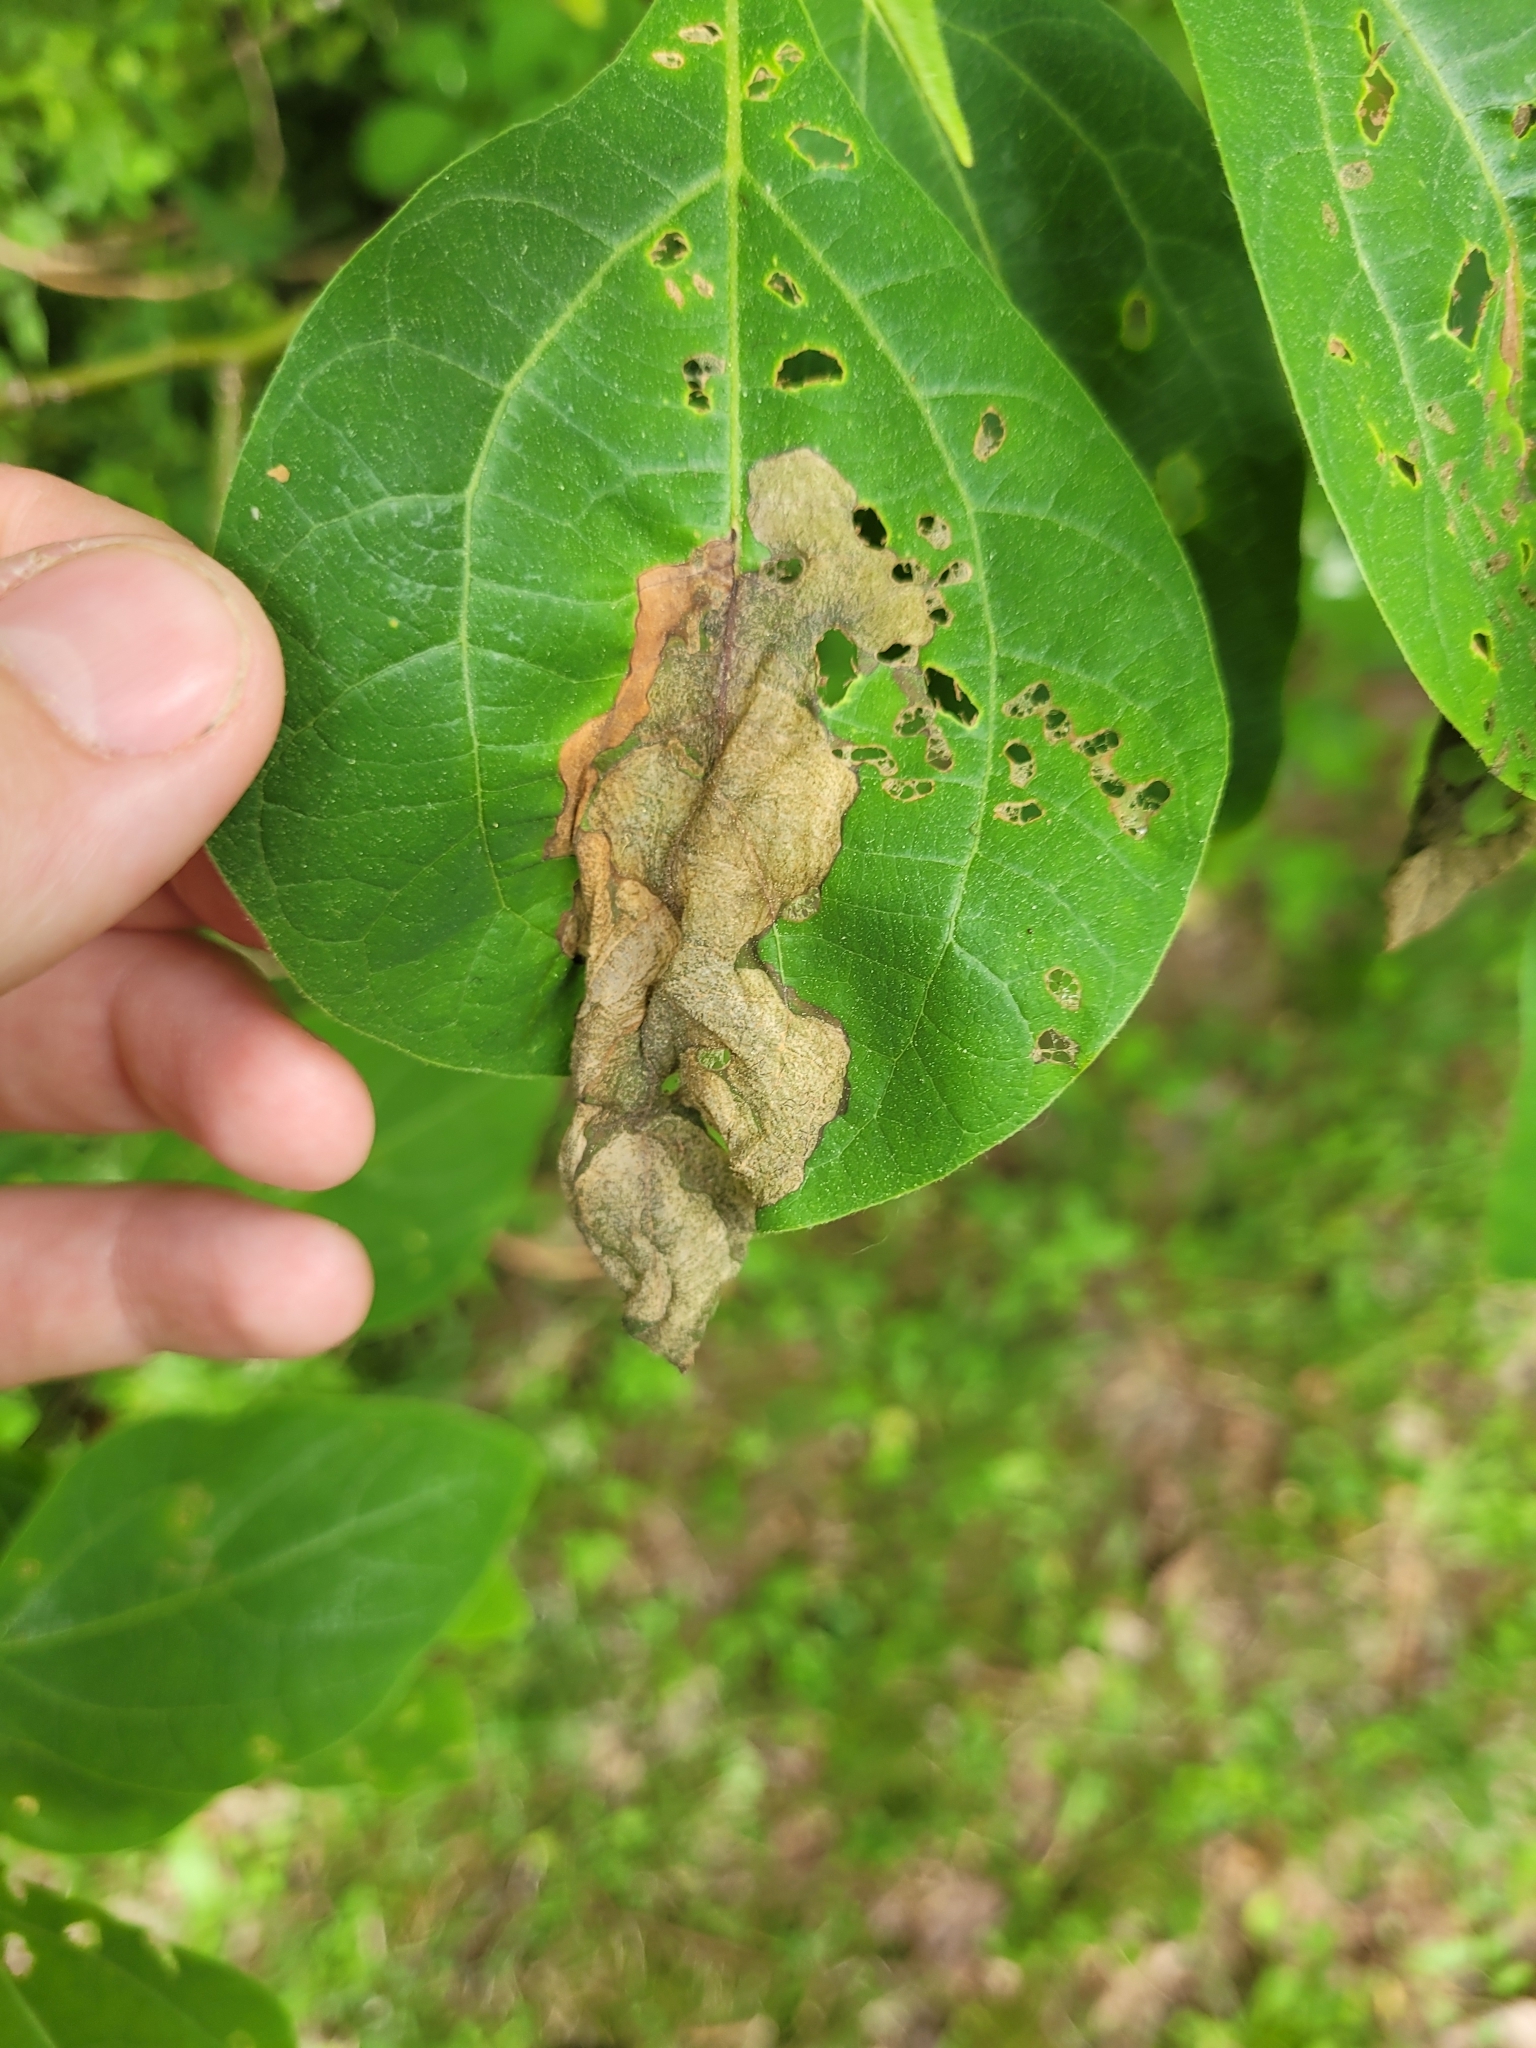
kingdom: Animalia
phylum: Arthropoda
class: Insecta
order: Coleoptera
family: Curculionidae
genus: Odontopus
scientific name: Odontopus calceatus
